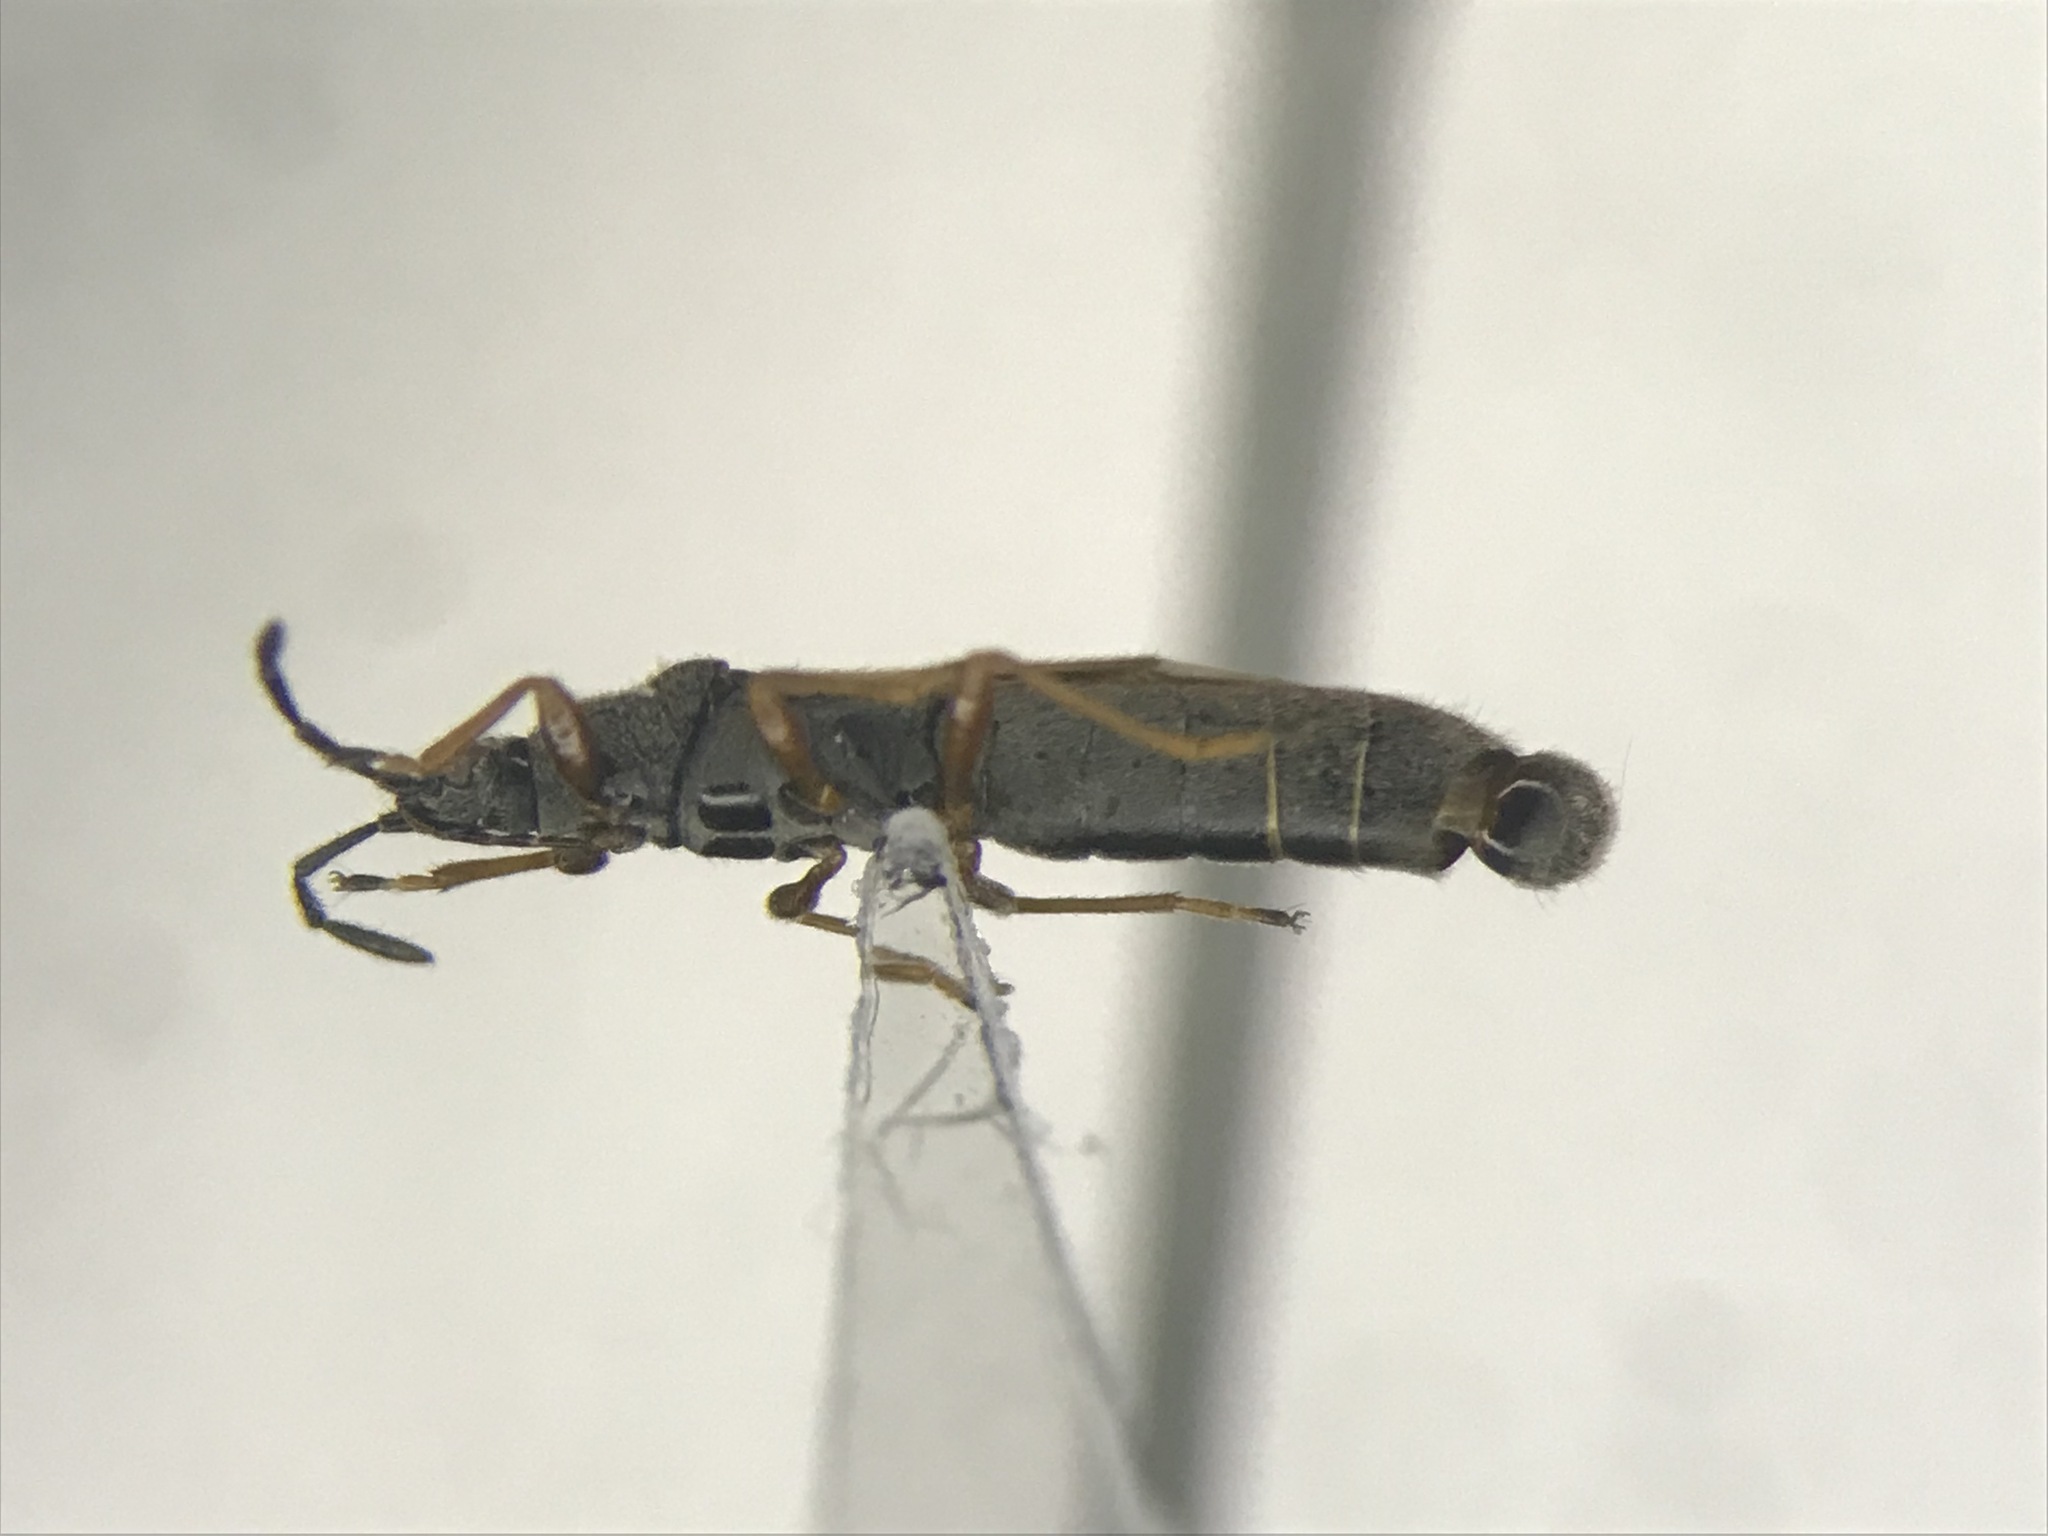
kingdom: Animalia
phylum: Arthropoda
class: Insecta
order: Hemiptera
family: Blissidae
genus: Ischnodemus
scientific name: Ischnodemus falicus
